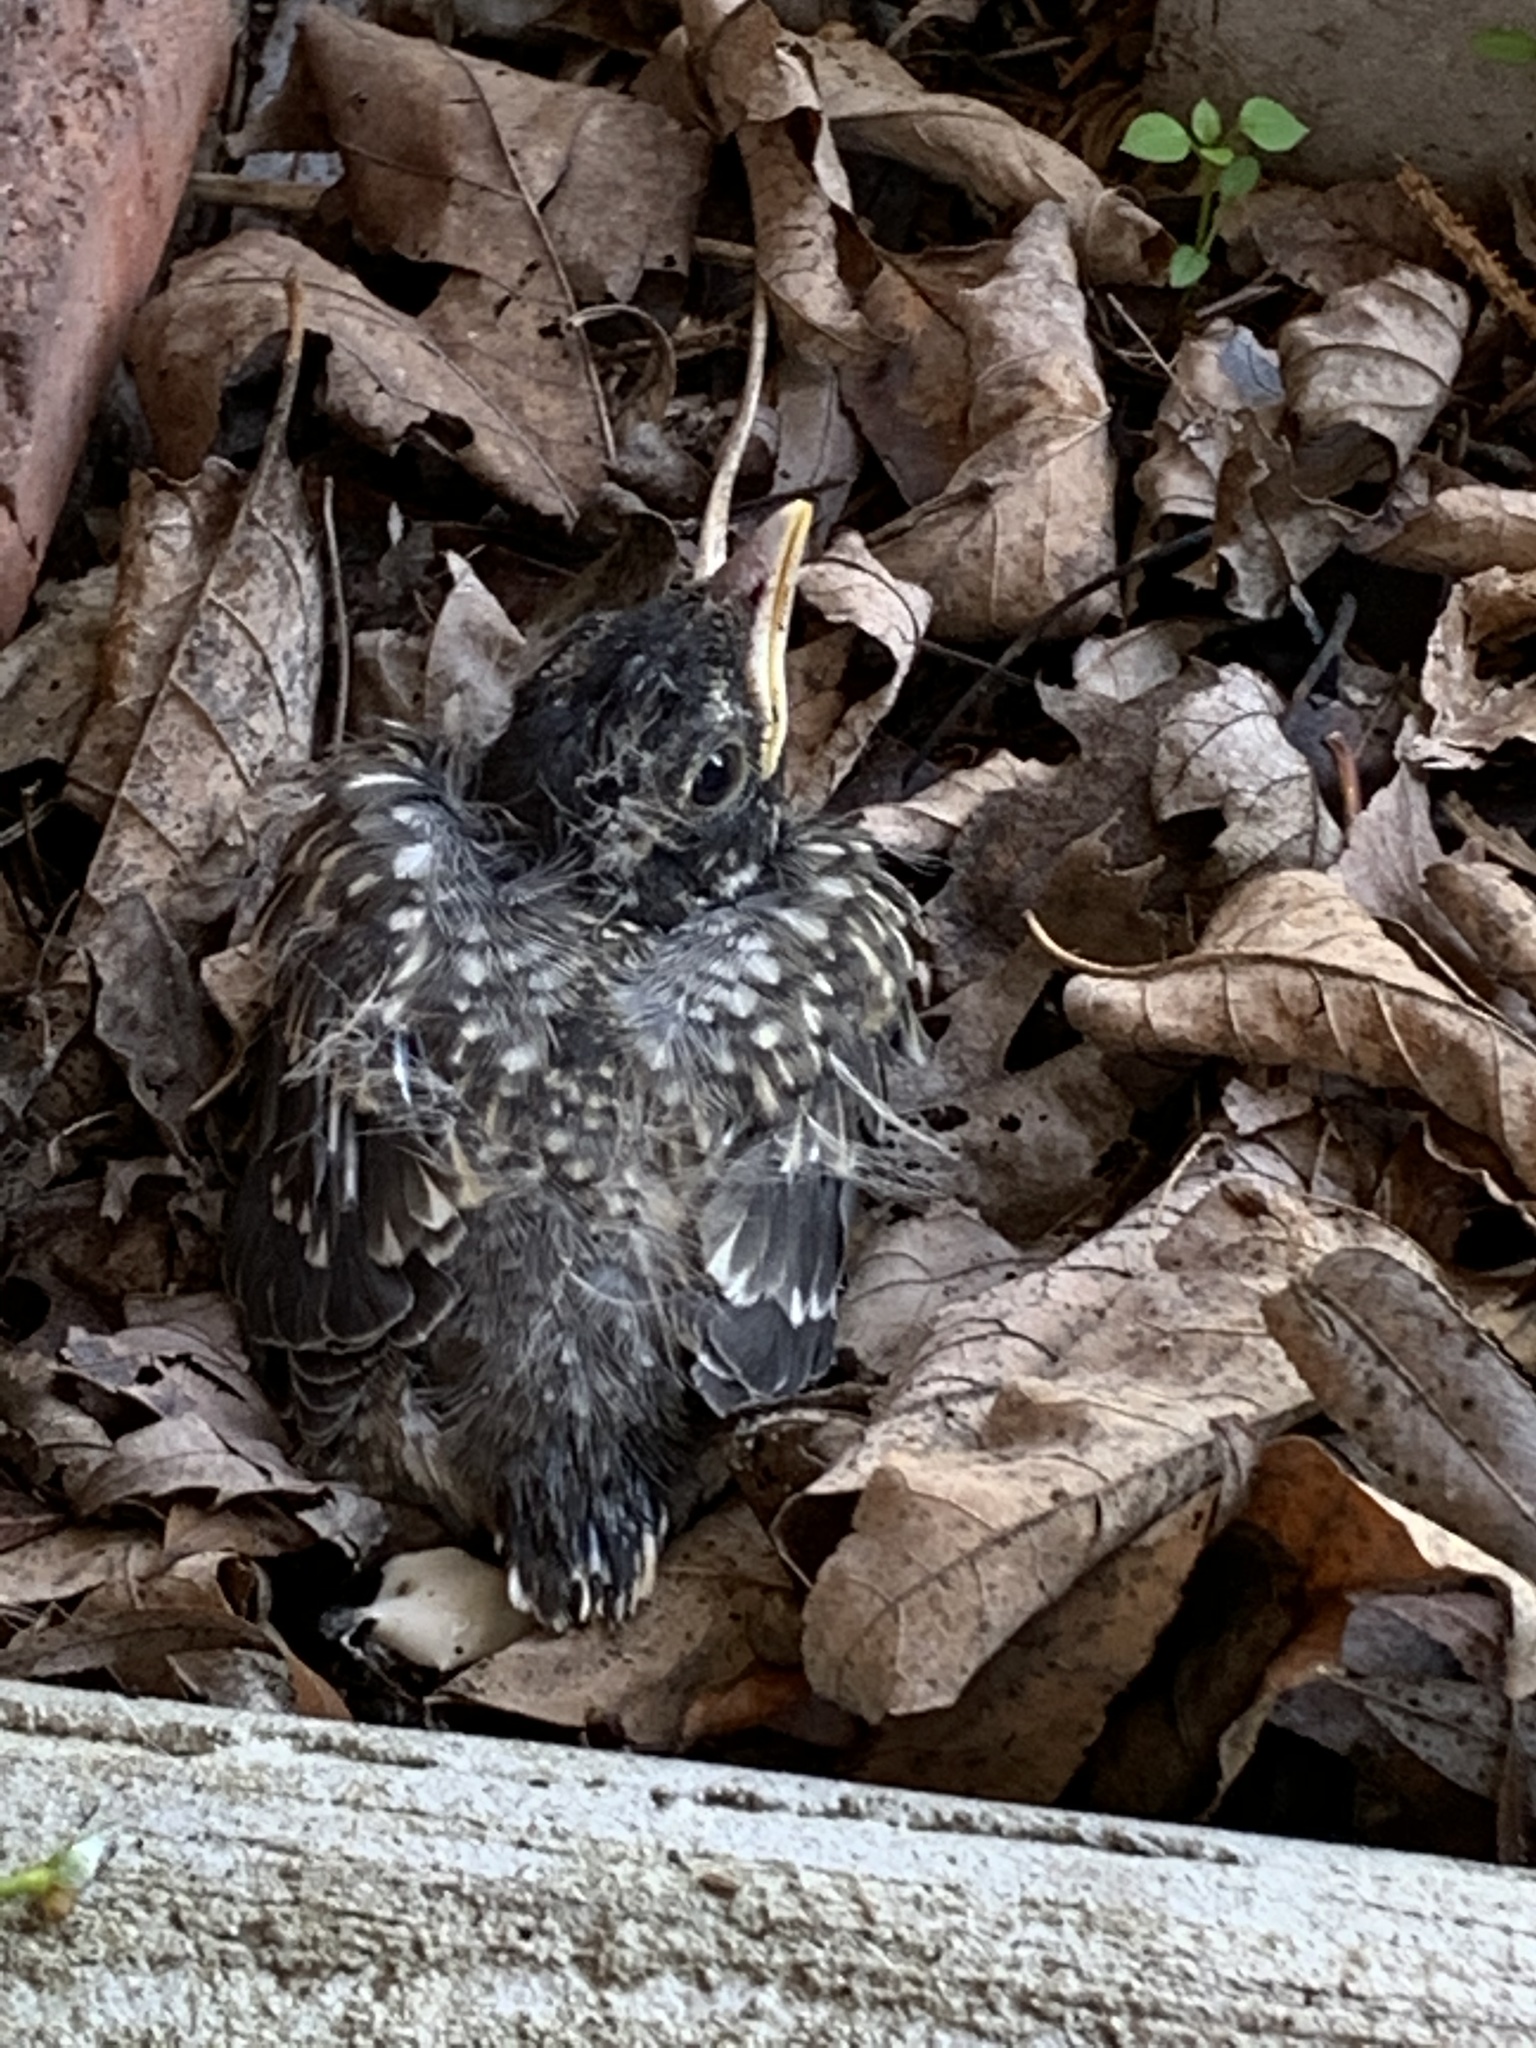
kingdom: Animalia
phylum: Chordata
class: Aves
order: Passeriformes
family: Turdidae
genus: Turdus
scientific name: Turdus migratorius
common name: American robin
